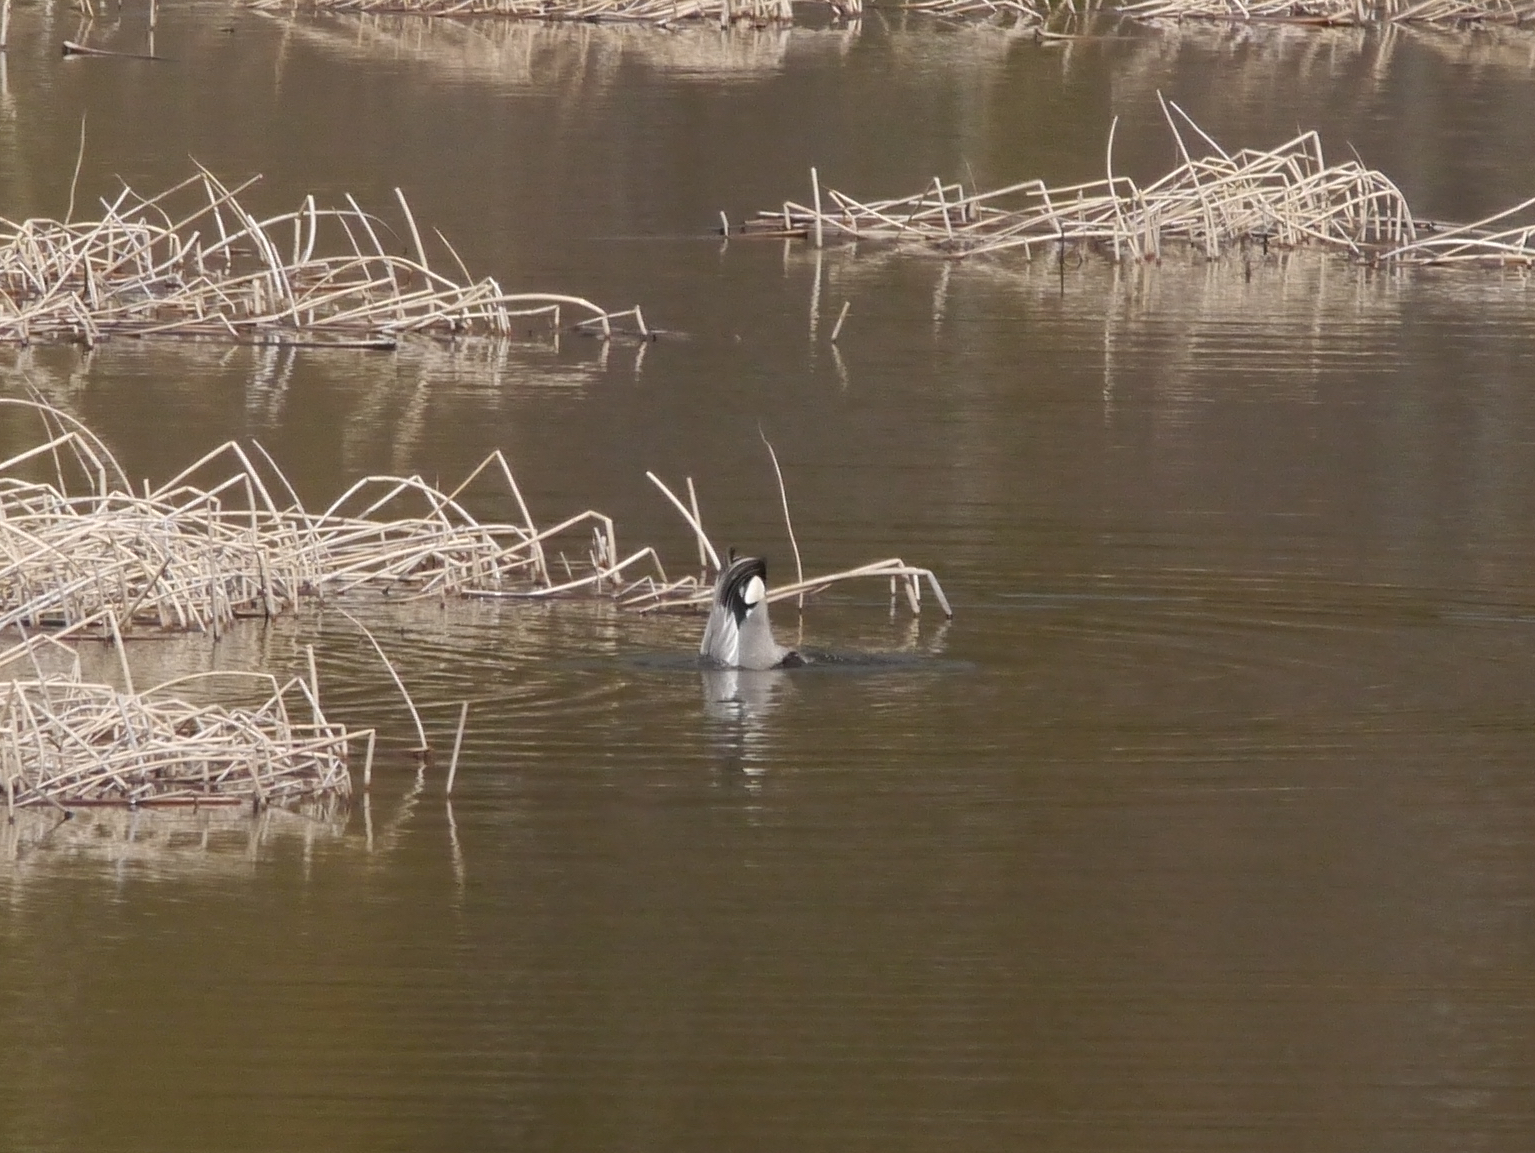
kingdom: Animalia
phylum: Chordata
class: Aves
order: Anseriformes
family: Anatidae
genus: Mareca
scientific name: Mareca falcata
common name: Falcated duck
